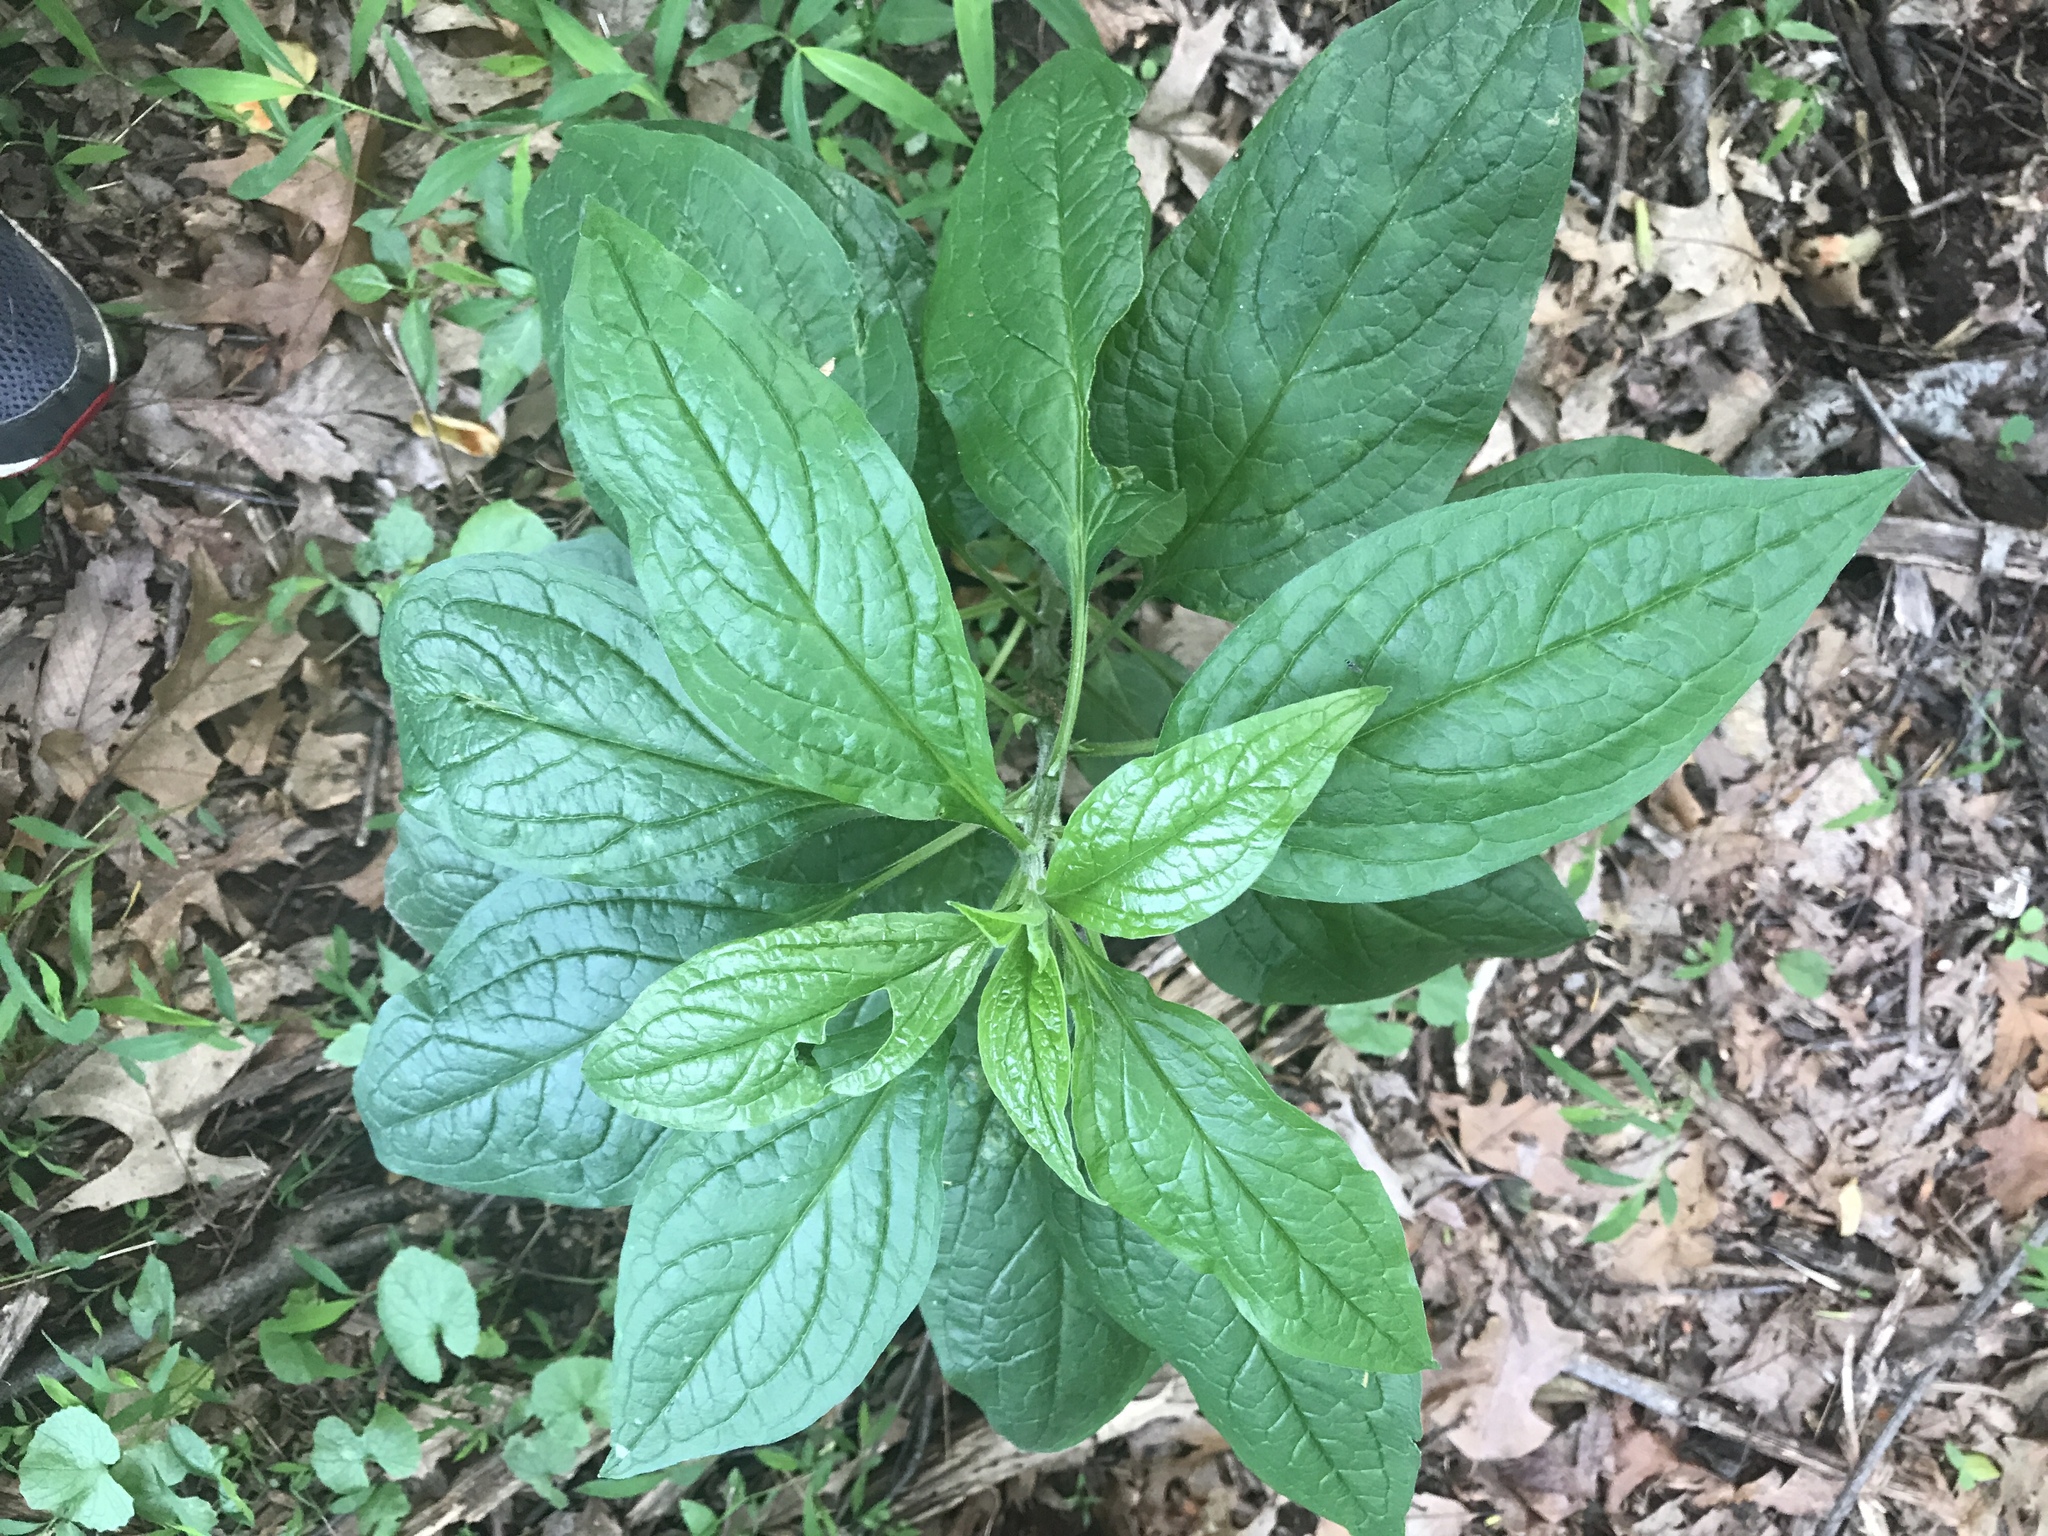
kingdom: Plantae
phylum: Tracheophyta
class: Magnoliopsida
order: Boraginales
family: Boraginaceae
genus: Hackelia
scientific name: Hackelia virginiana
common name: Beggar's-lice
